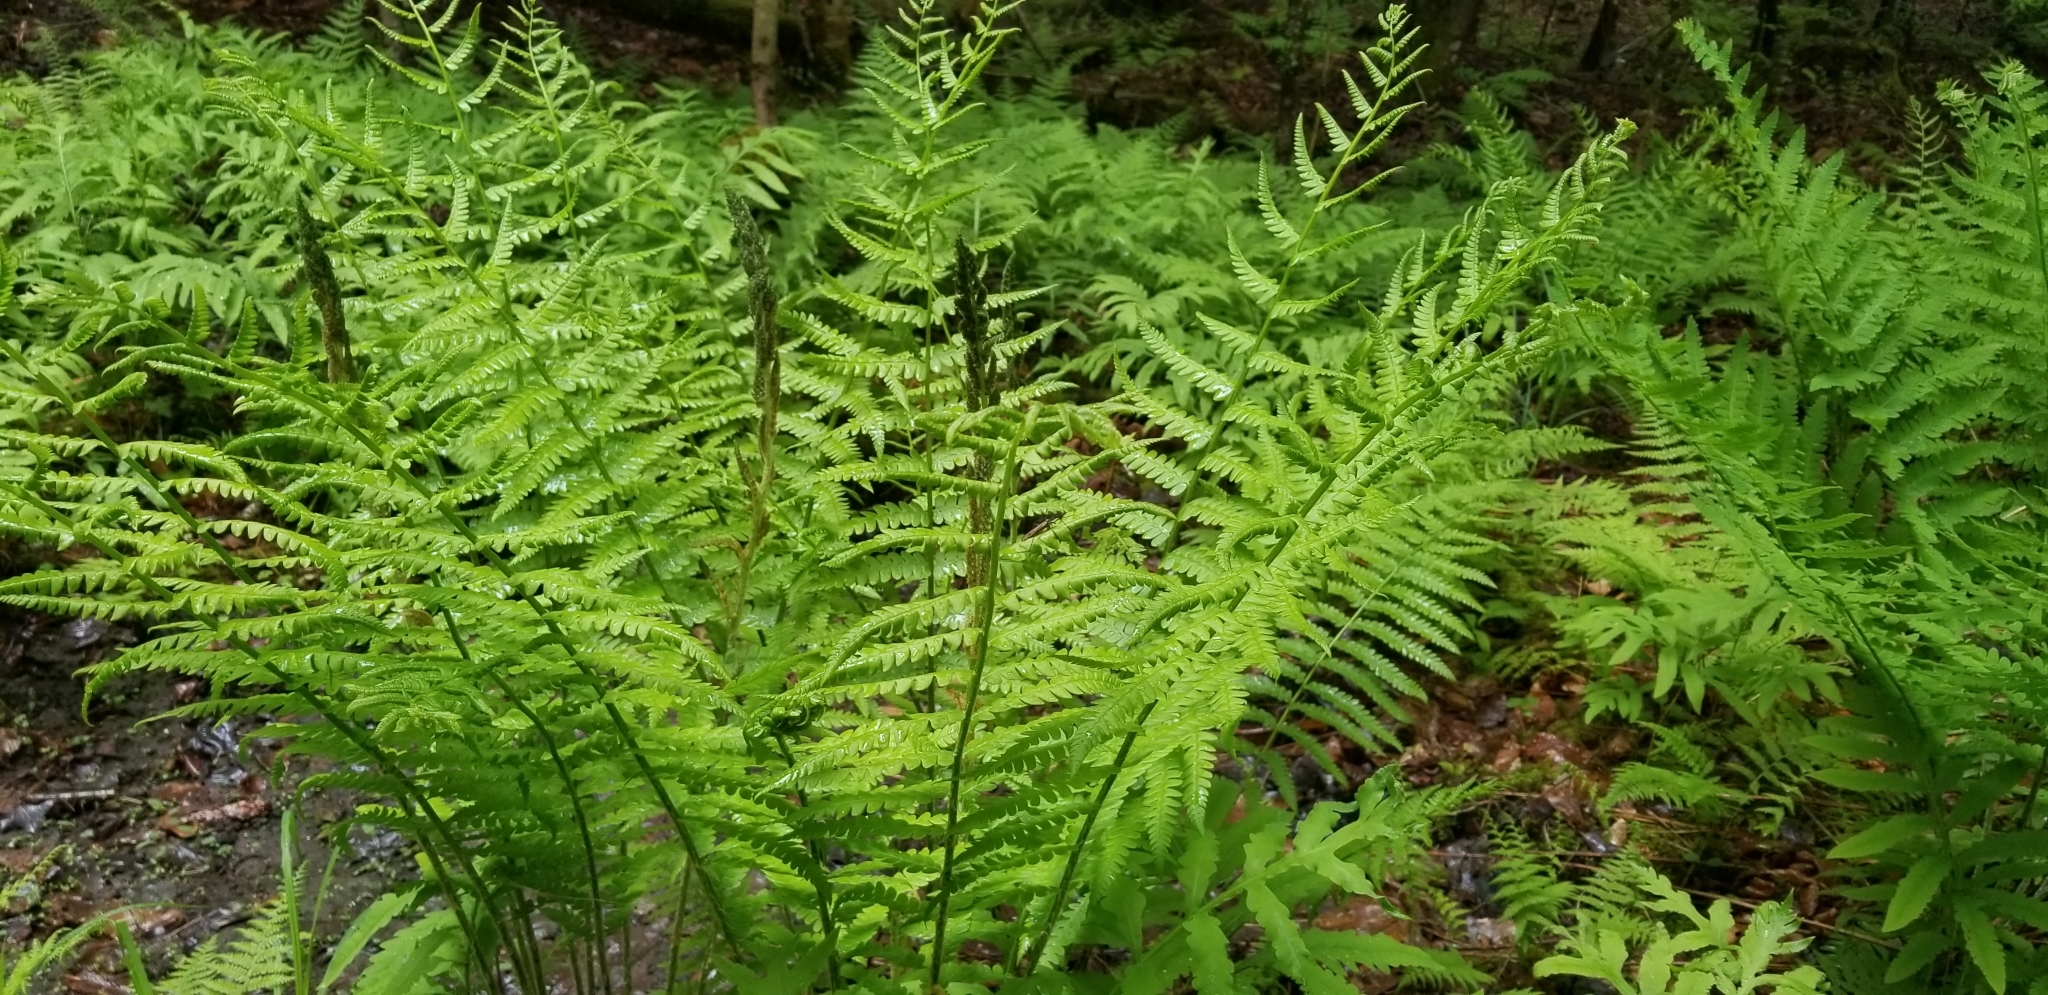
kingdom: Plantae
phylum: Tracheophyta
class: Polypodiopsida
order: Osmundales
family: Osmundaceae
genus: Osmundastrum
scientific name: Osmundastrum cinnamomeum
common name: Cinnamon fern
